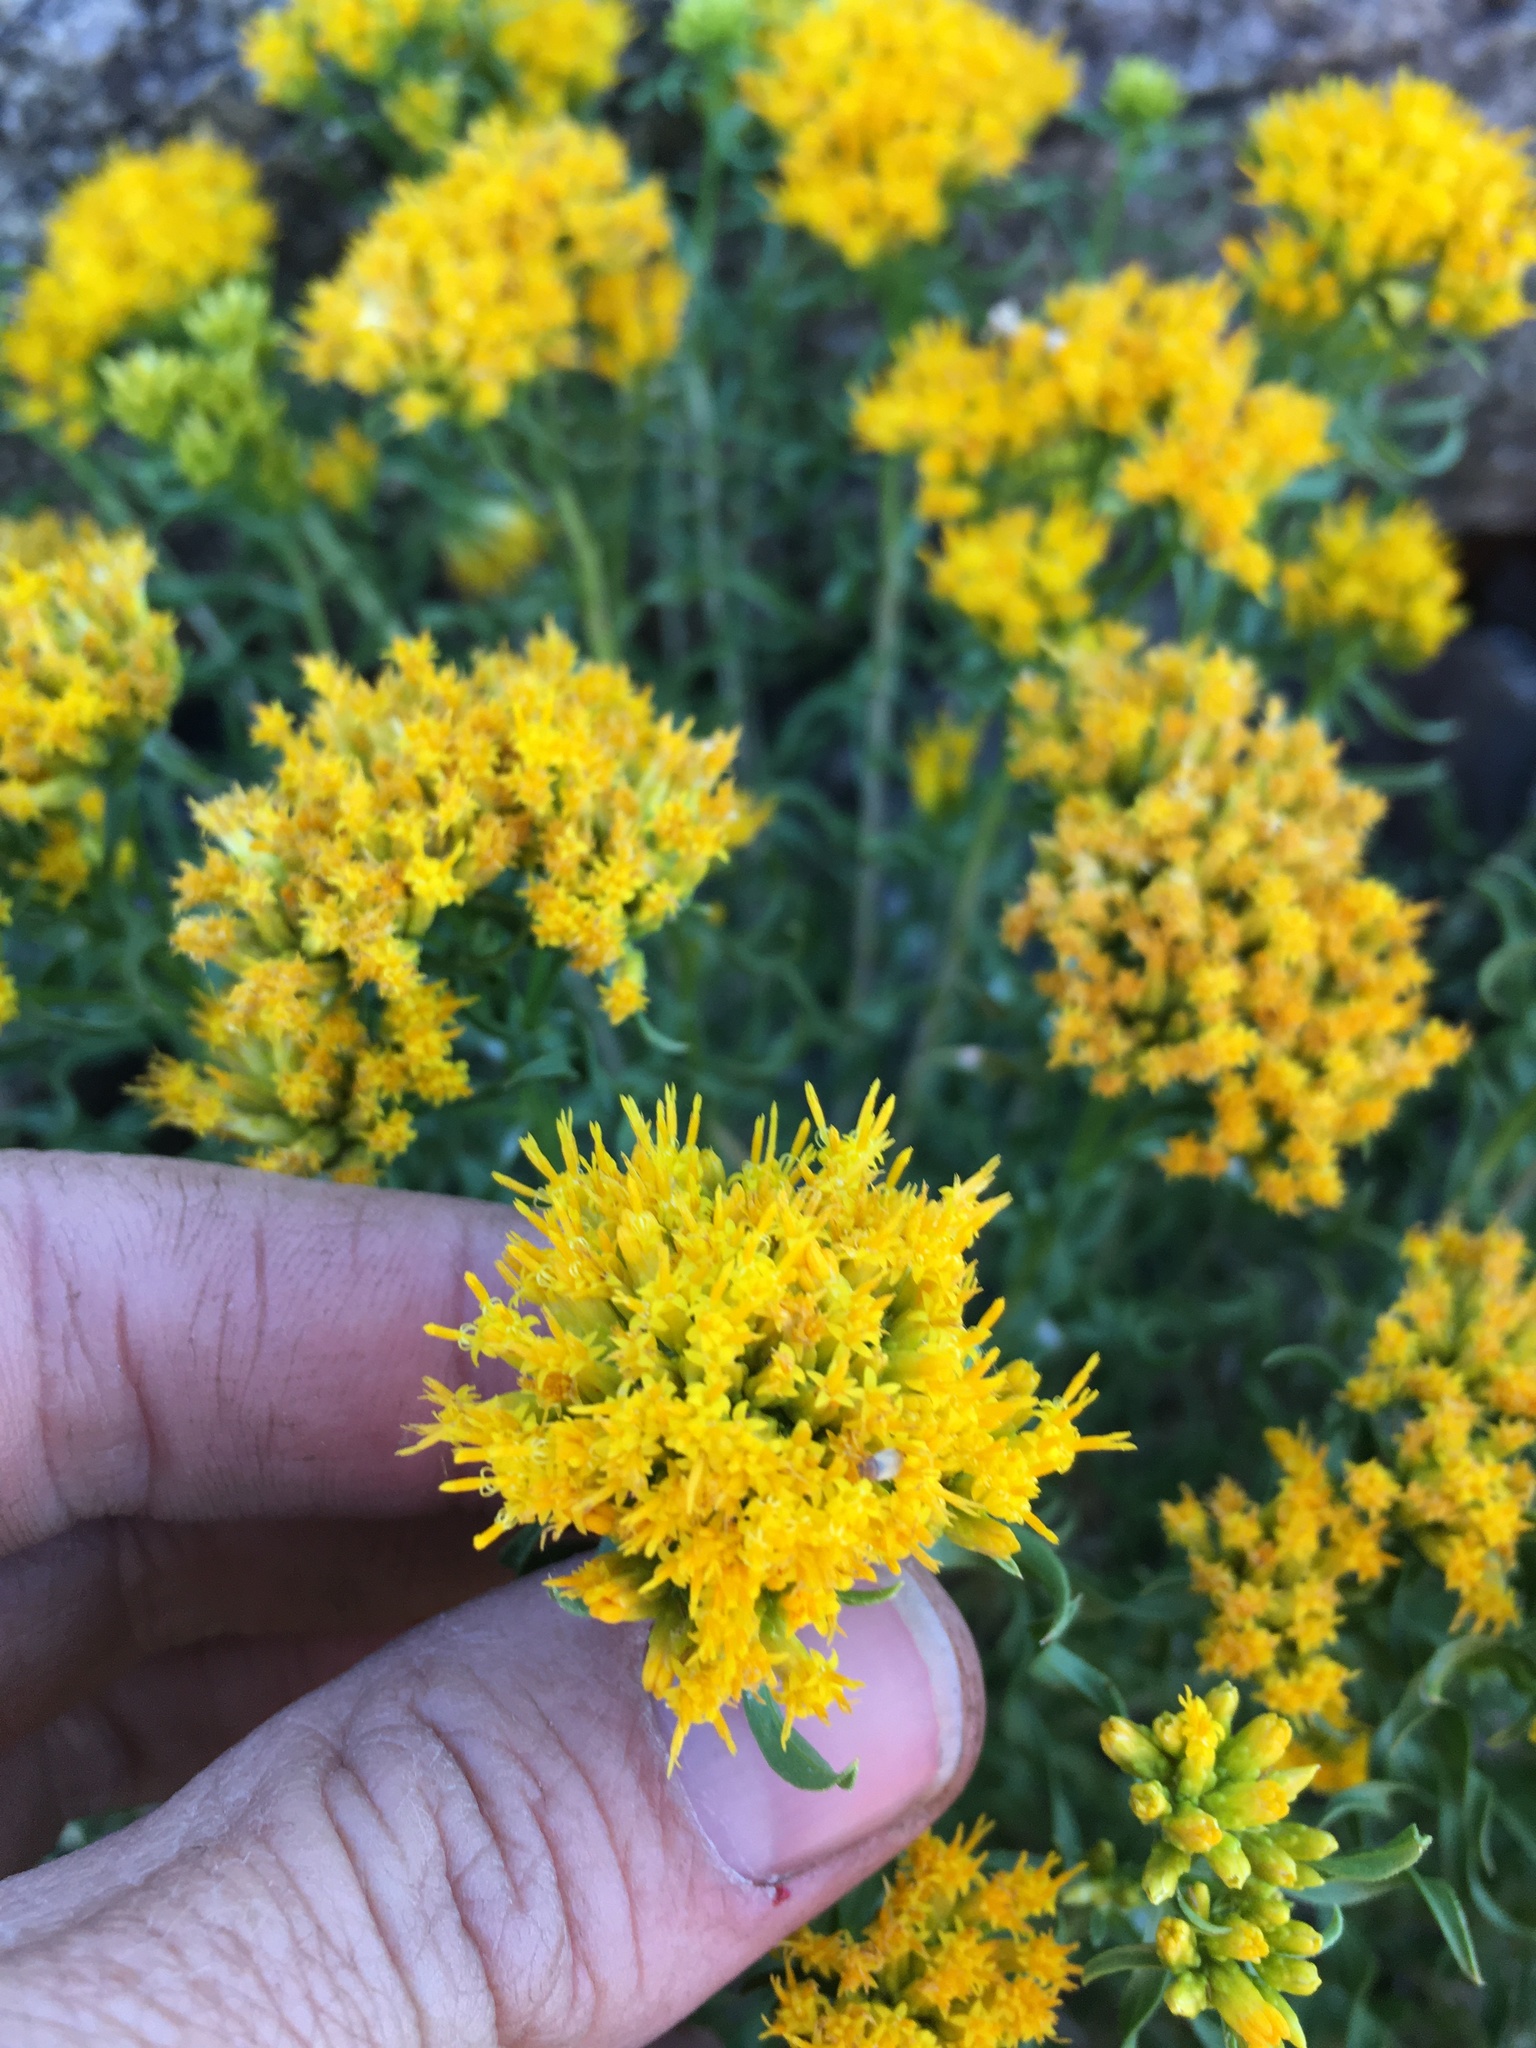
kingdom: Plantae
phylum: Tracheophyta
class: Magnoliopsida
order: Asterales
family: Asteraceae
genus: Chrysothamnus
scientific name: Chrysothamnus viscidiflorus
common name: Yellow rabbitbrush
